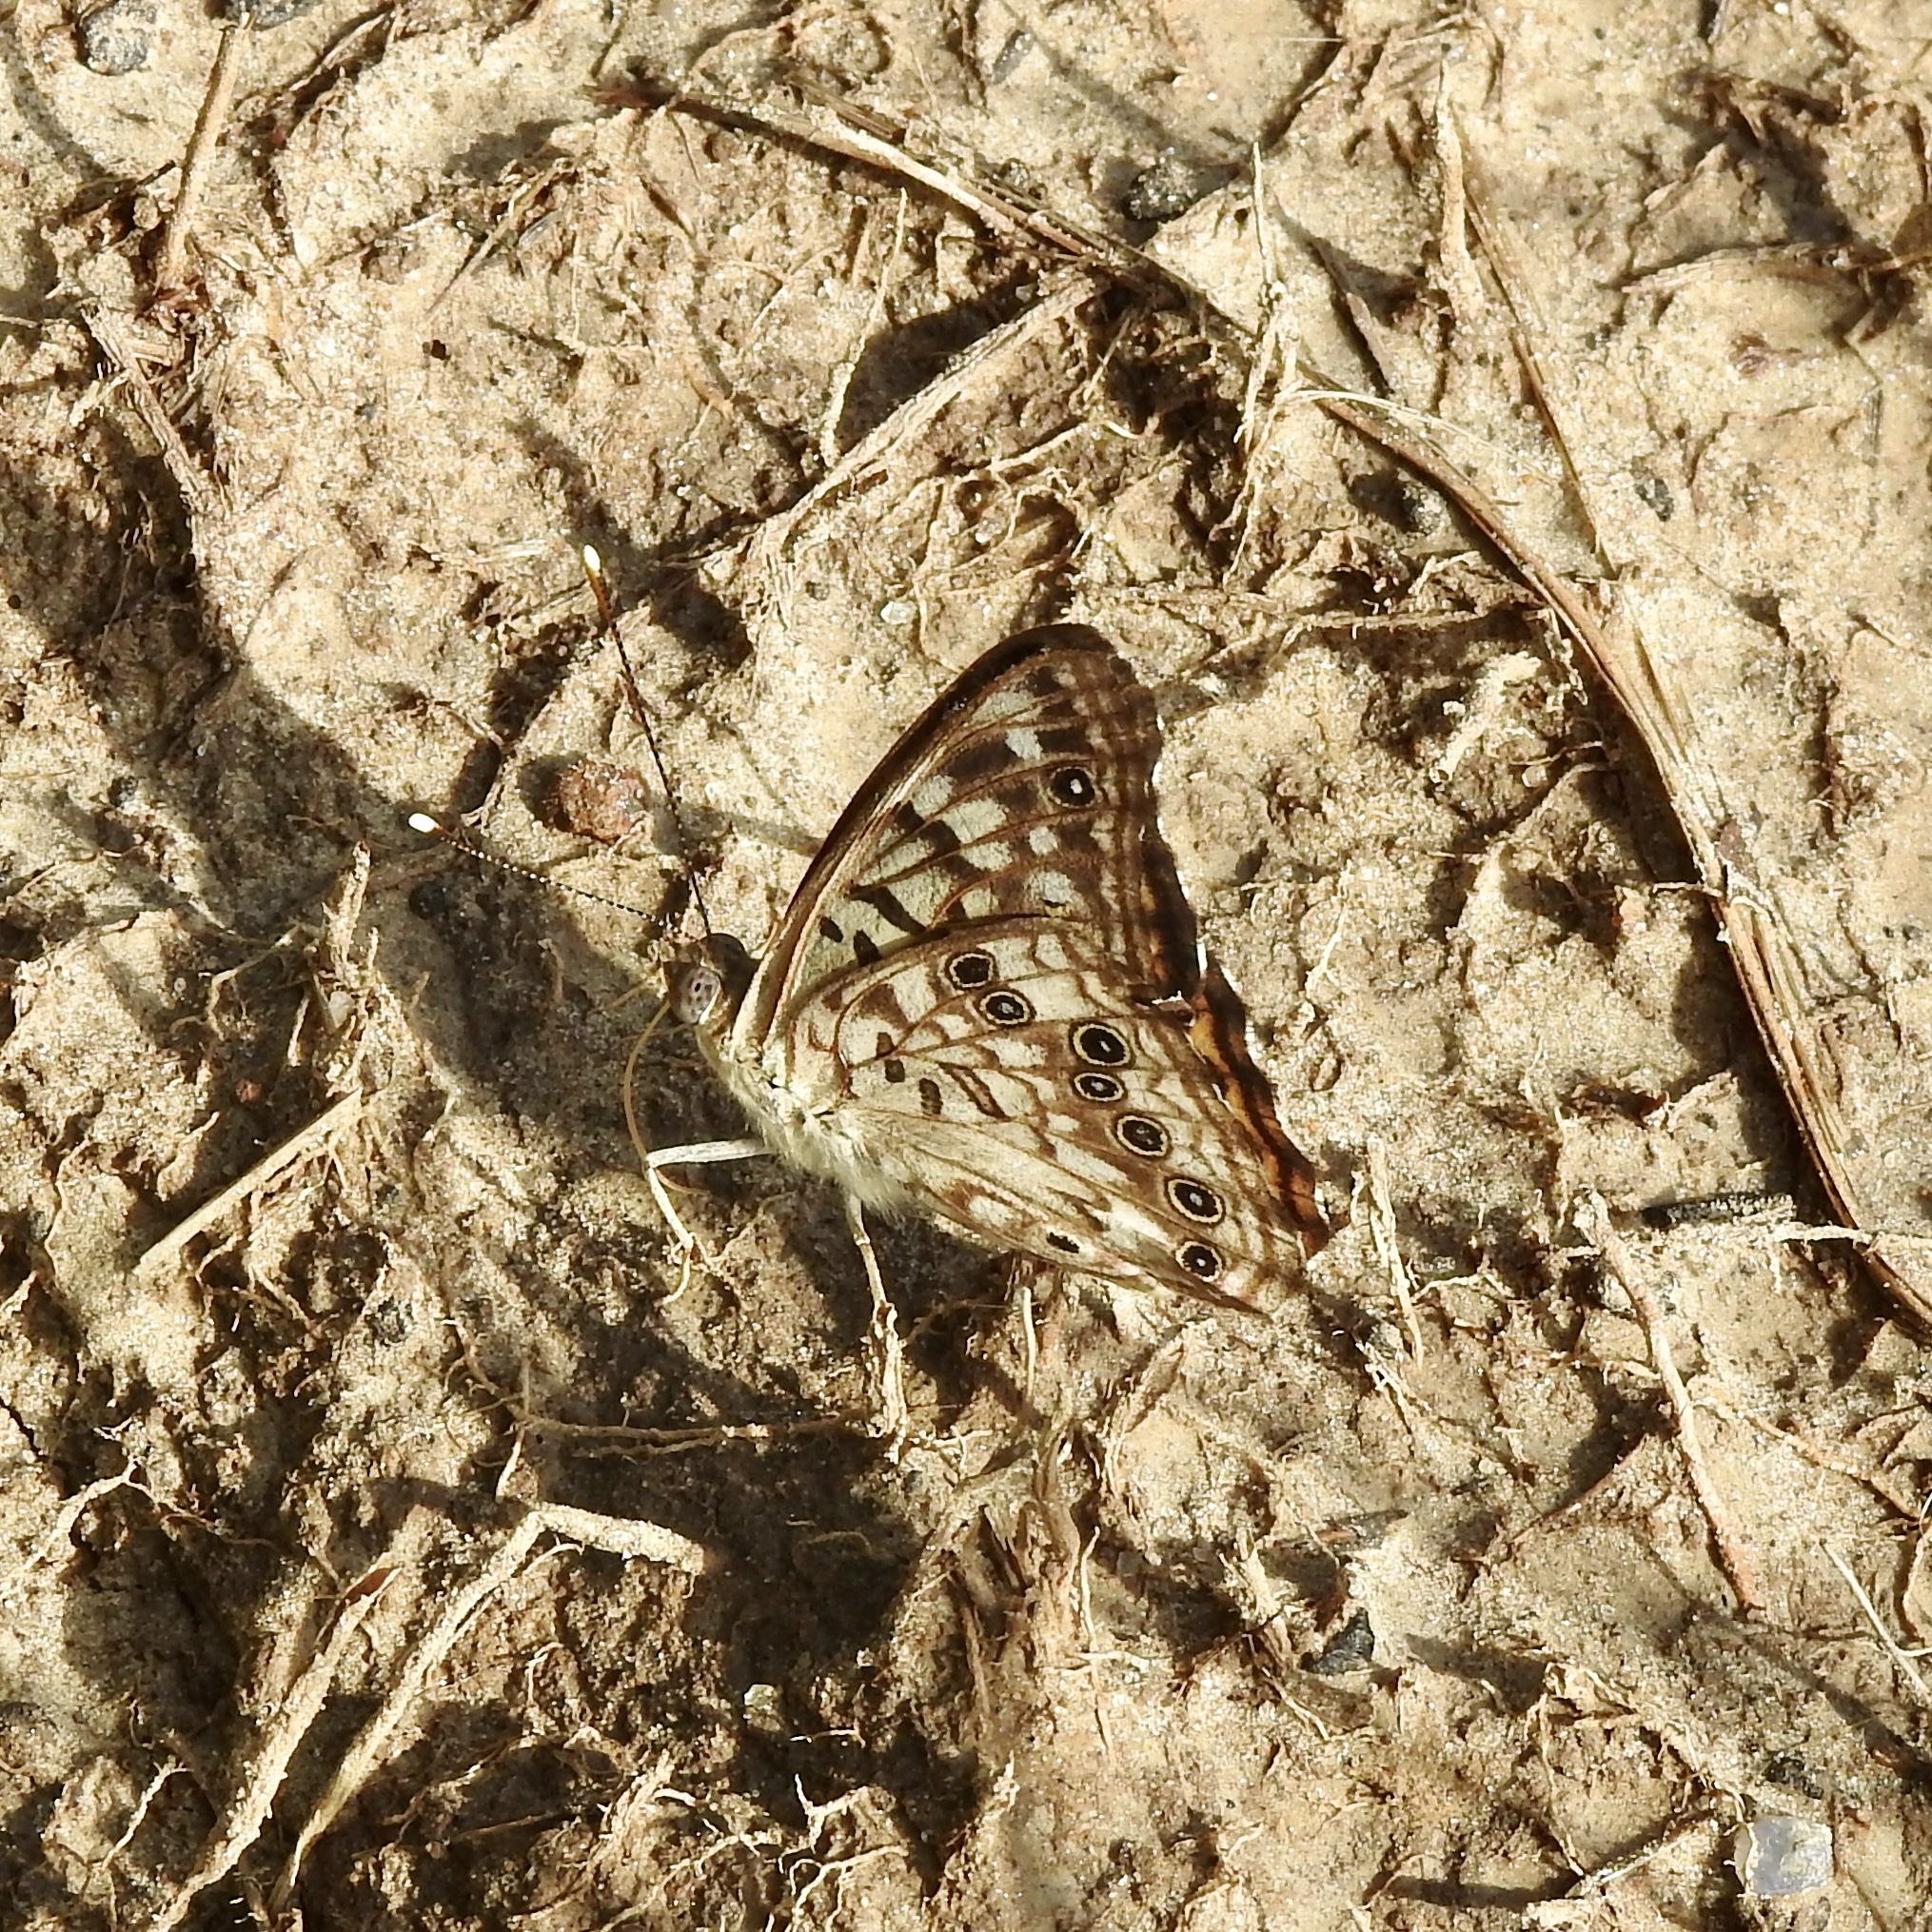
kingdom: Animalia
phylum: Arthropoda
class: Insecta
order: Lepidoptera
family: Nymphalidae
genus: Asterocampa
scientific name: Asterocampa celtis
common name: Hackberry emperor
